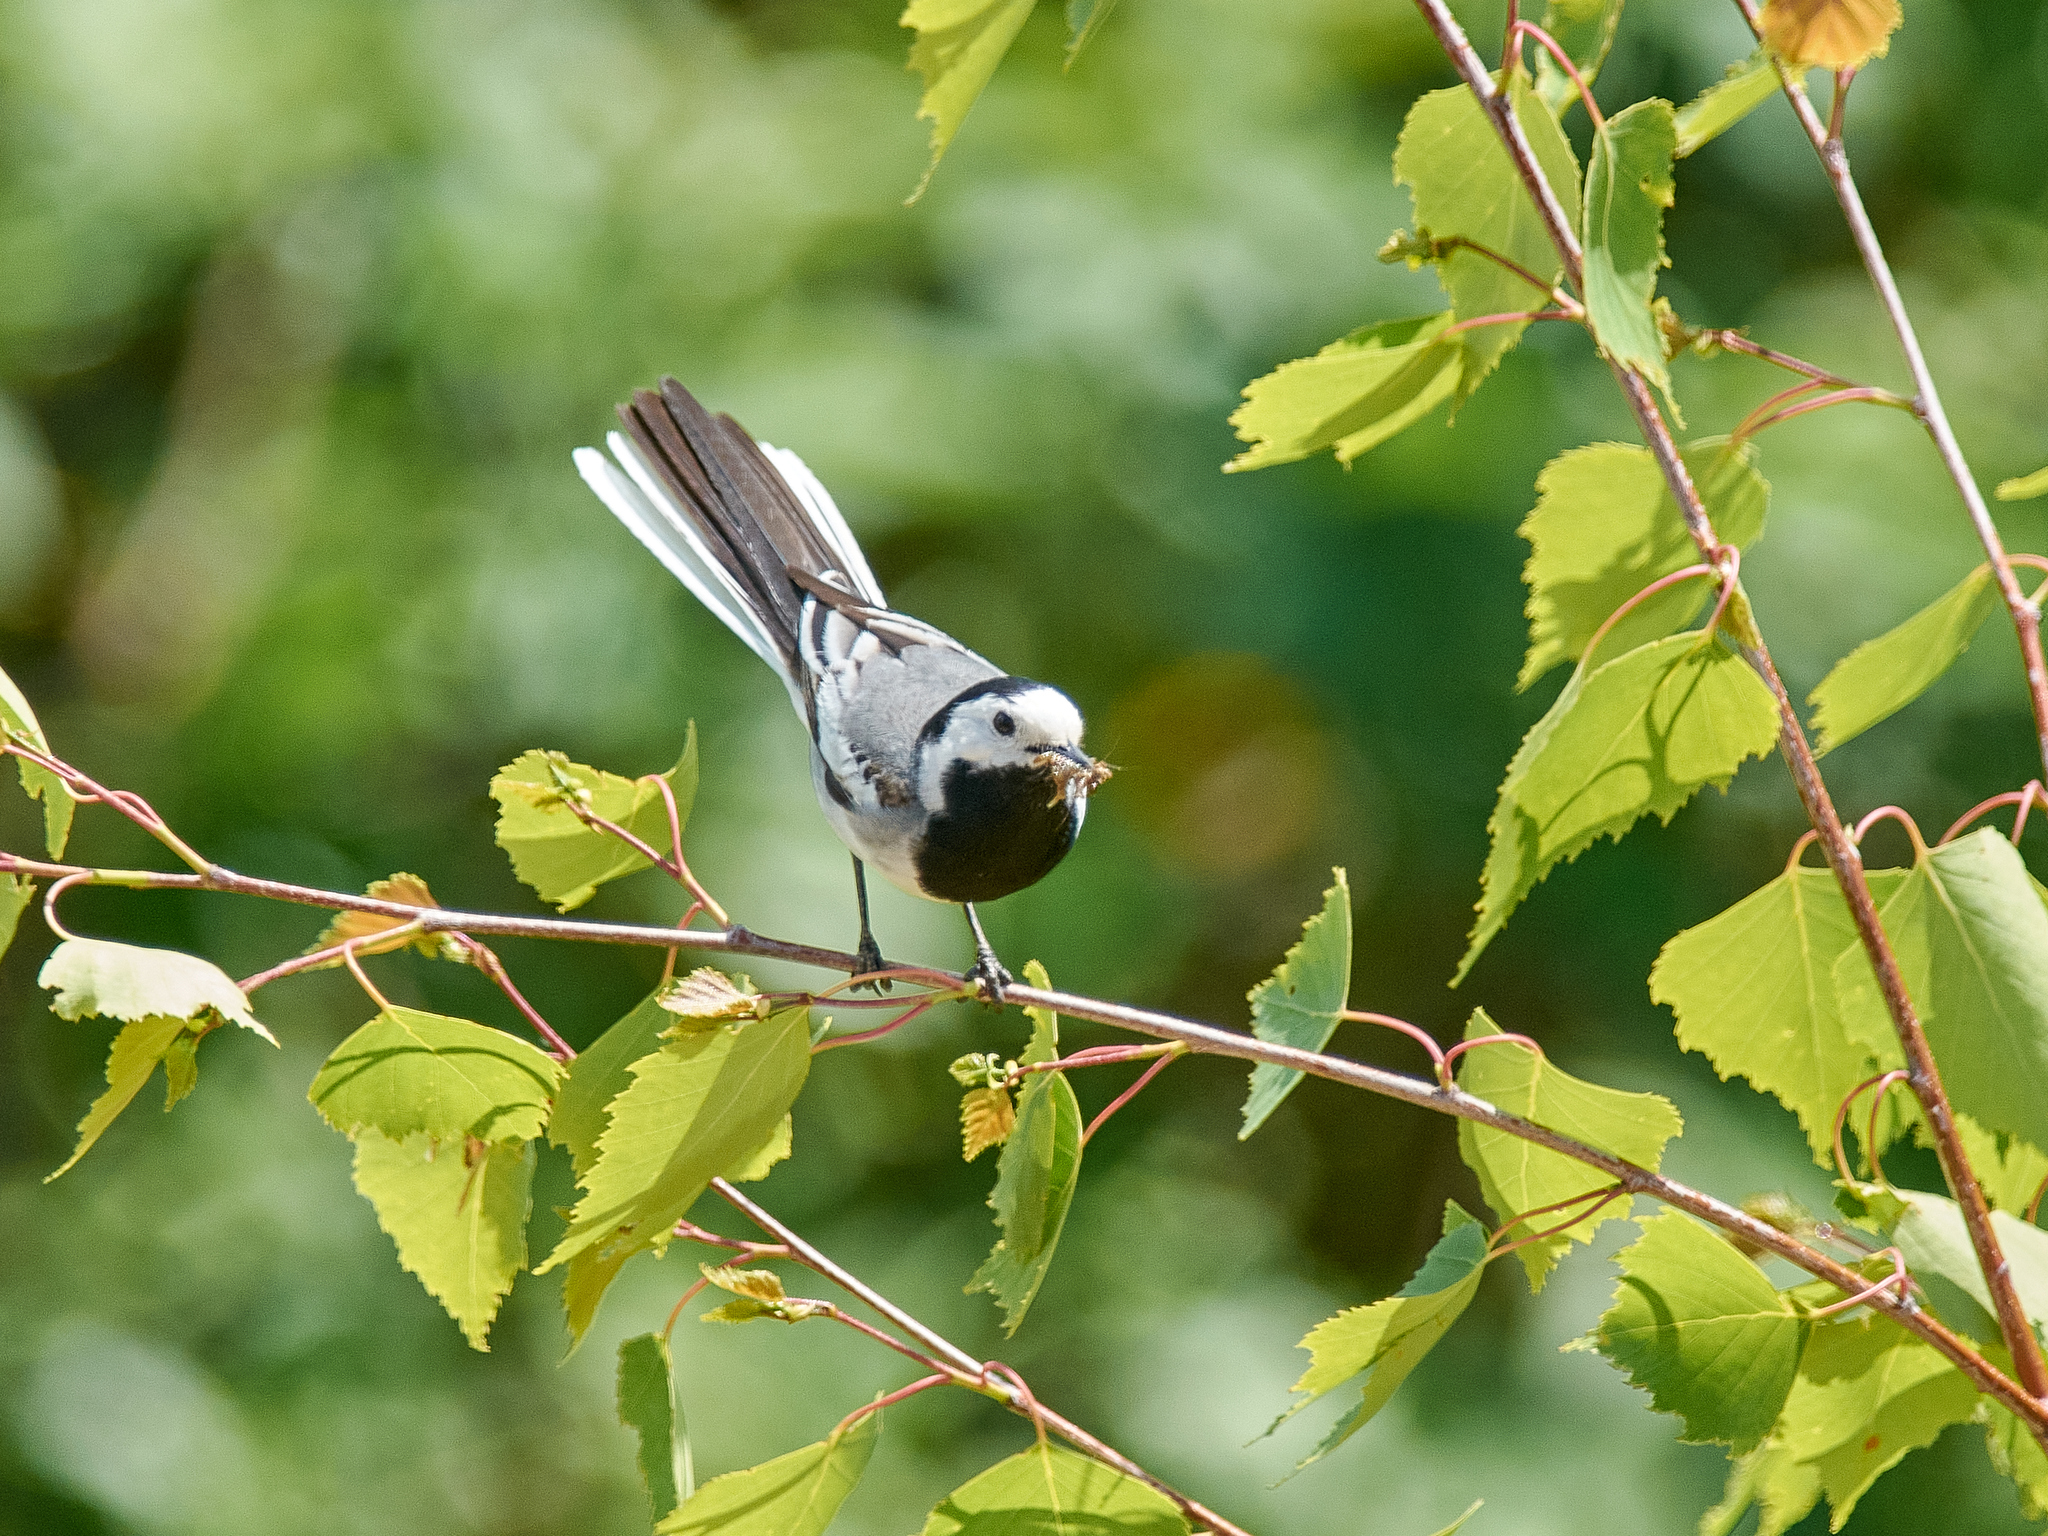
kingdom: Animalia
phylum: Chordata
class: Aves
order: Passeriformes
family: Motacillidae
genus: Motacilla
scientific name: Motacilla alba
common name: White wagtail
